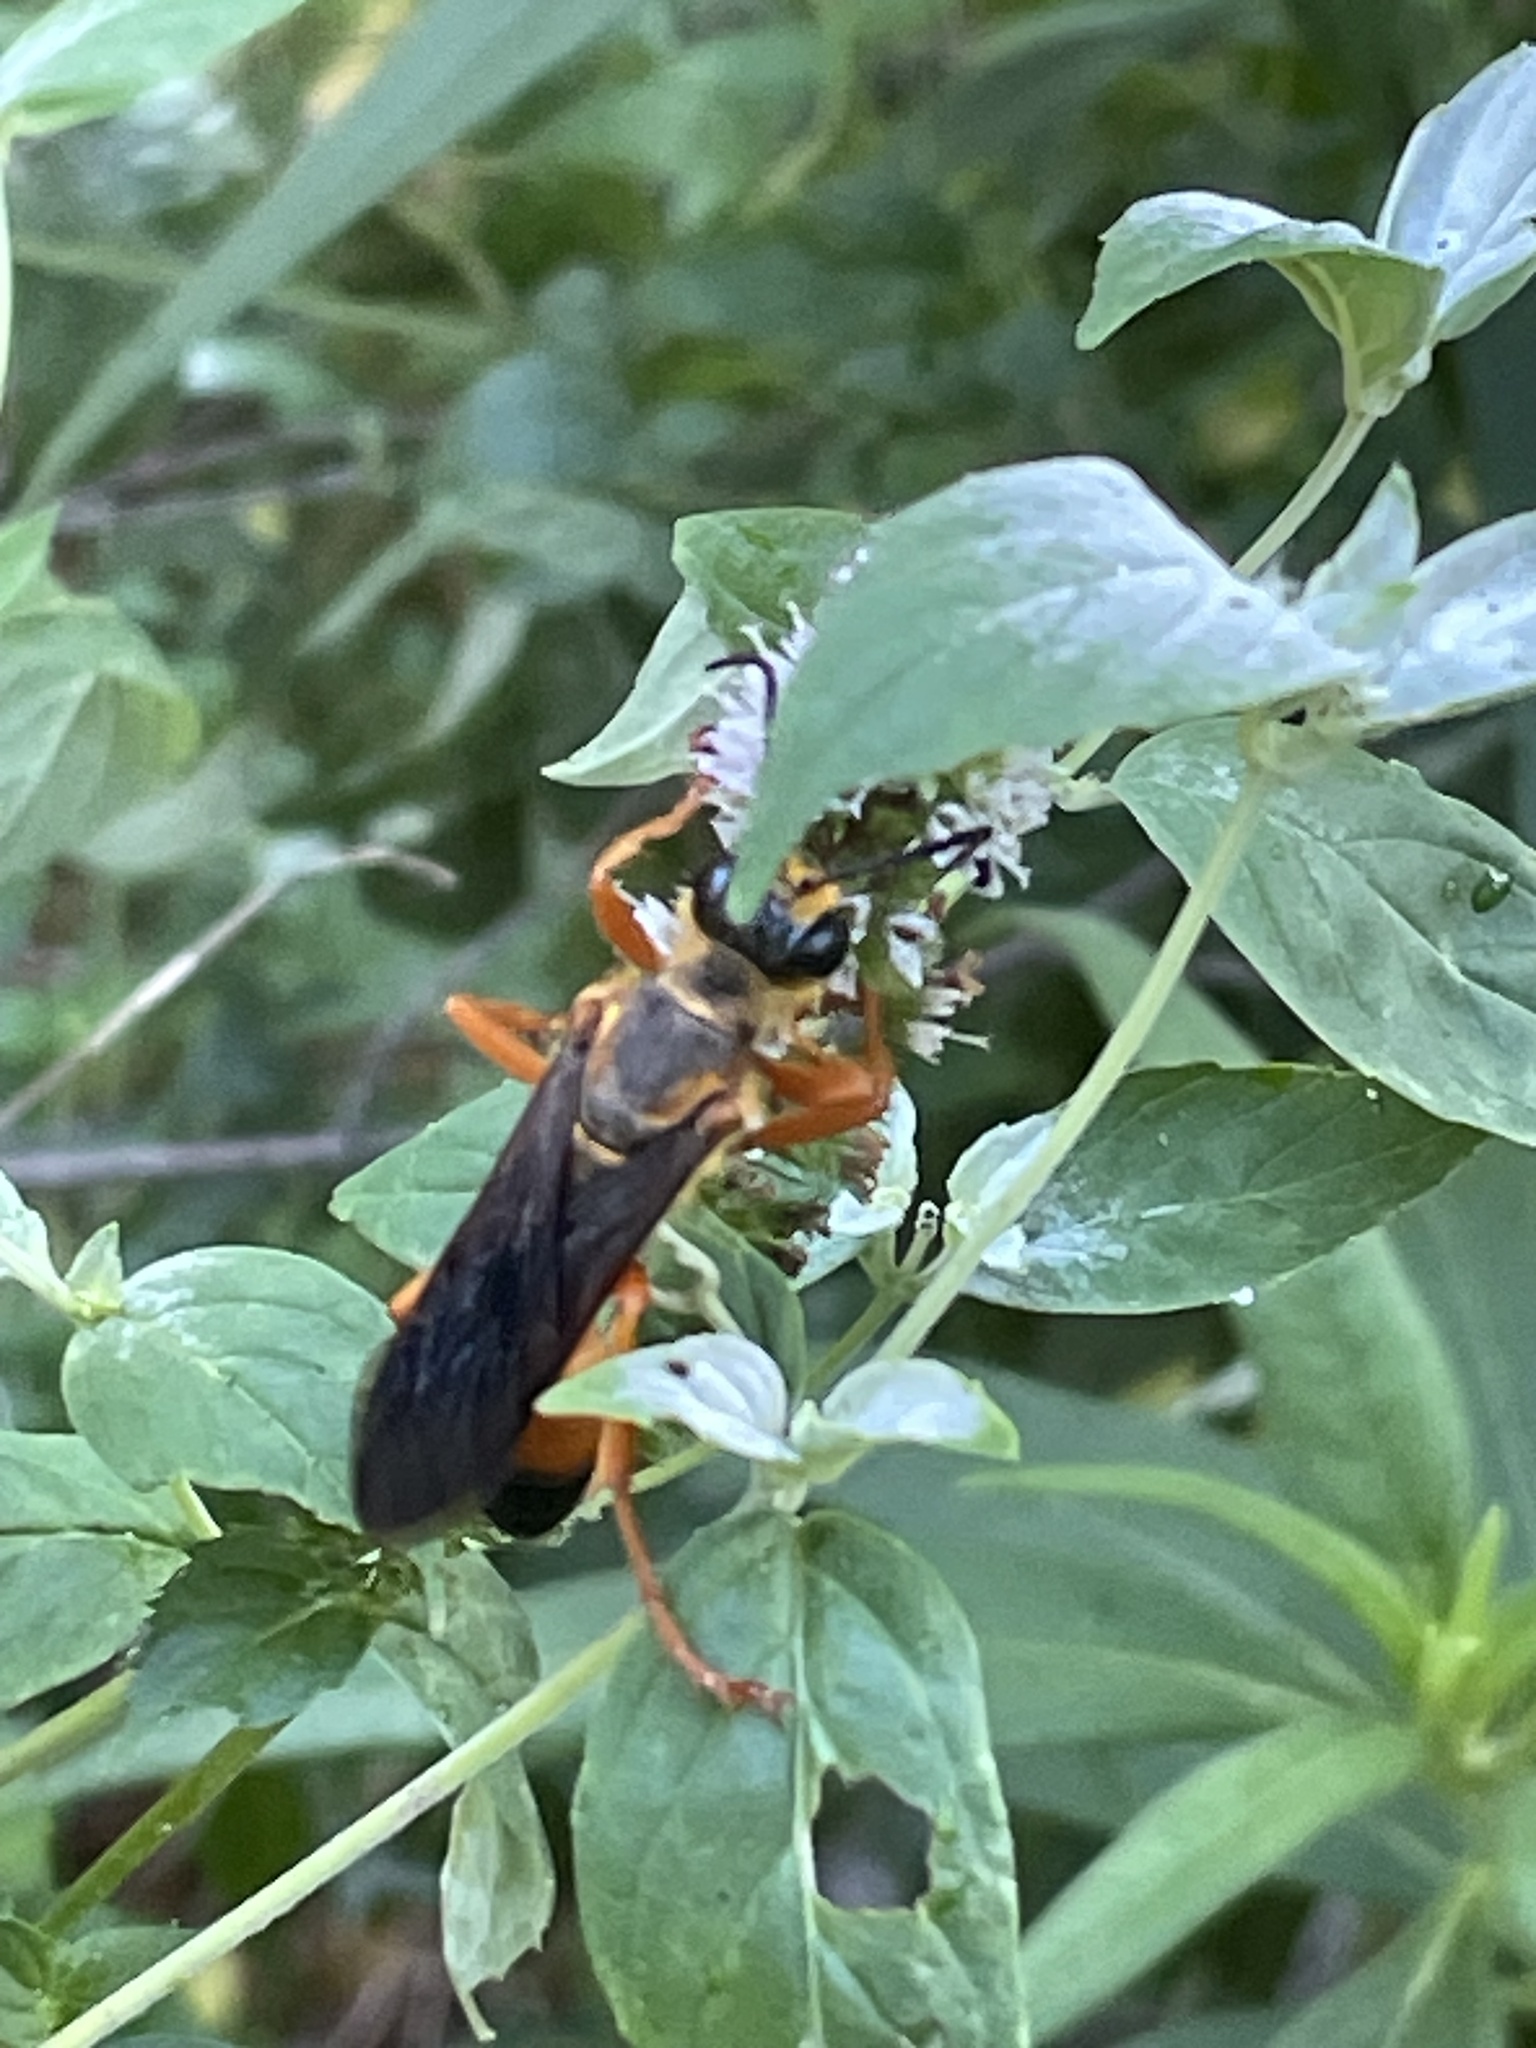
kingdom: Animalia
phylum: Arthropoda
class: Insecta
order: Hymenoptera
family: Sphecidae
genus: Sphex
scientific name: Sphex ichneumoneus
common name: Great golden digger wasp
